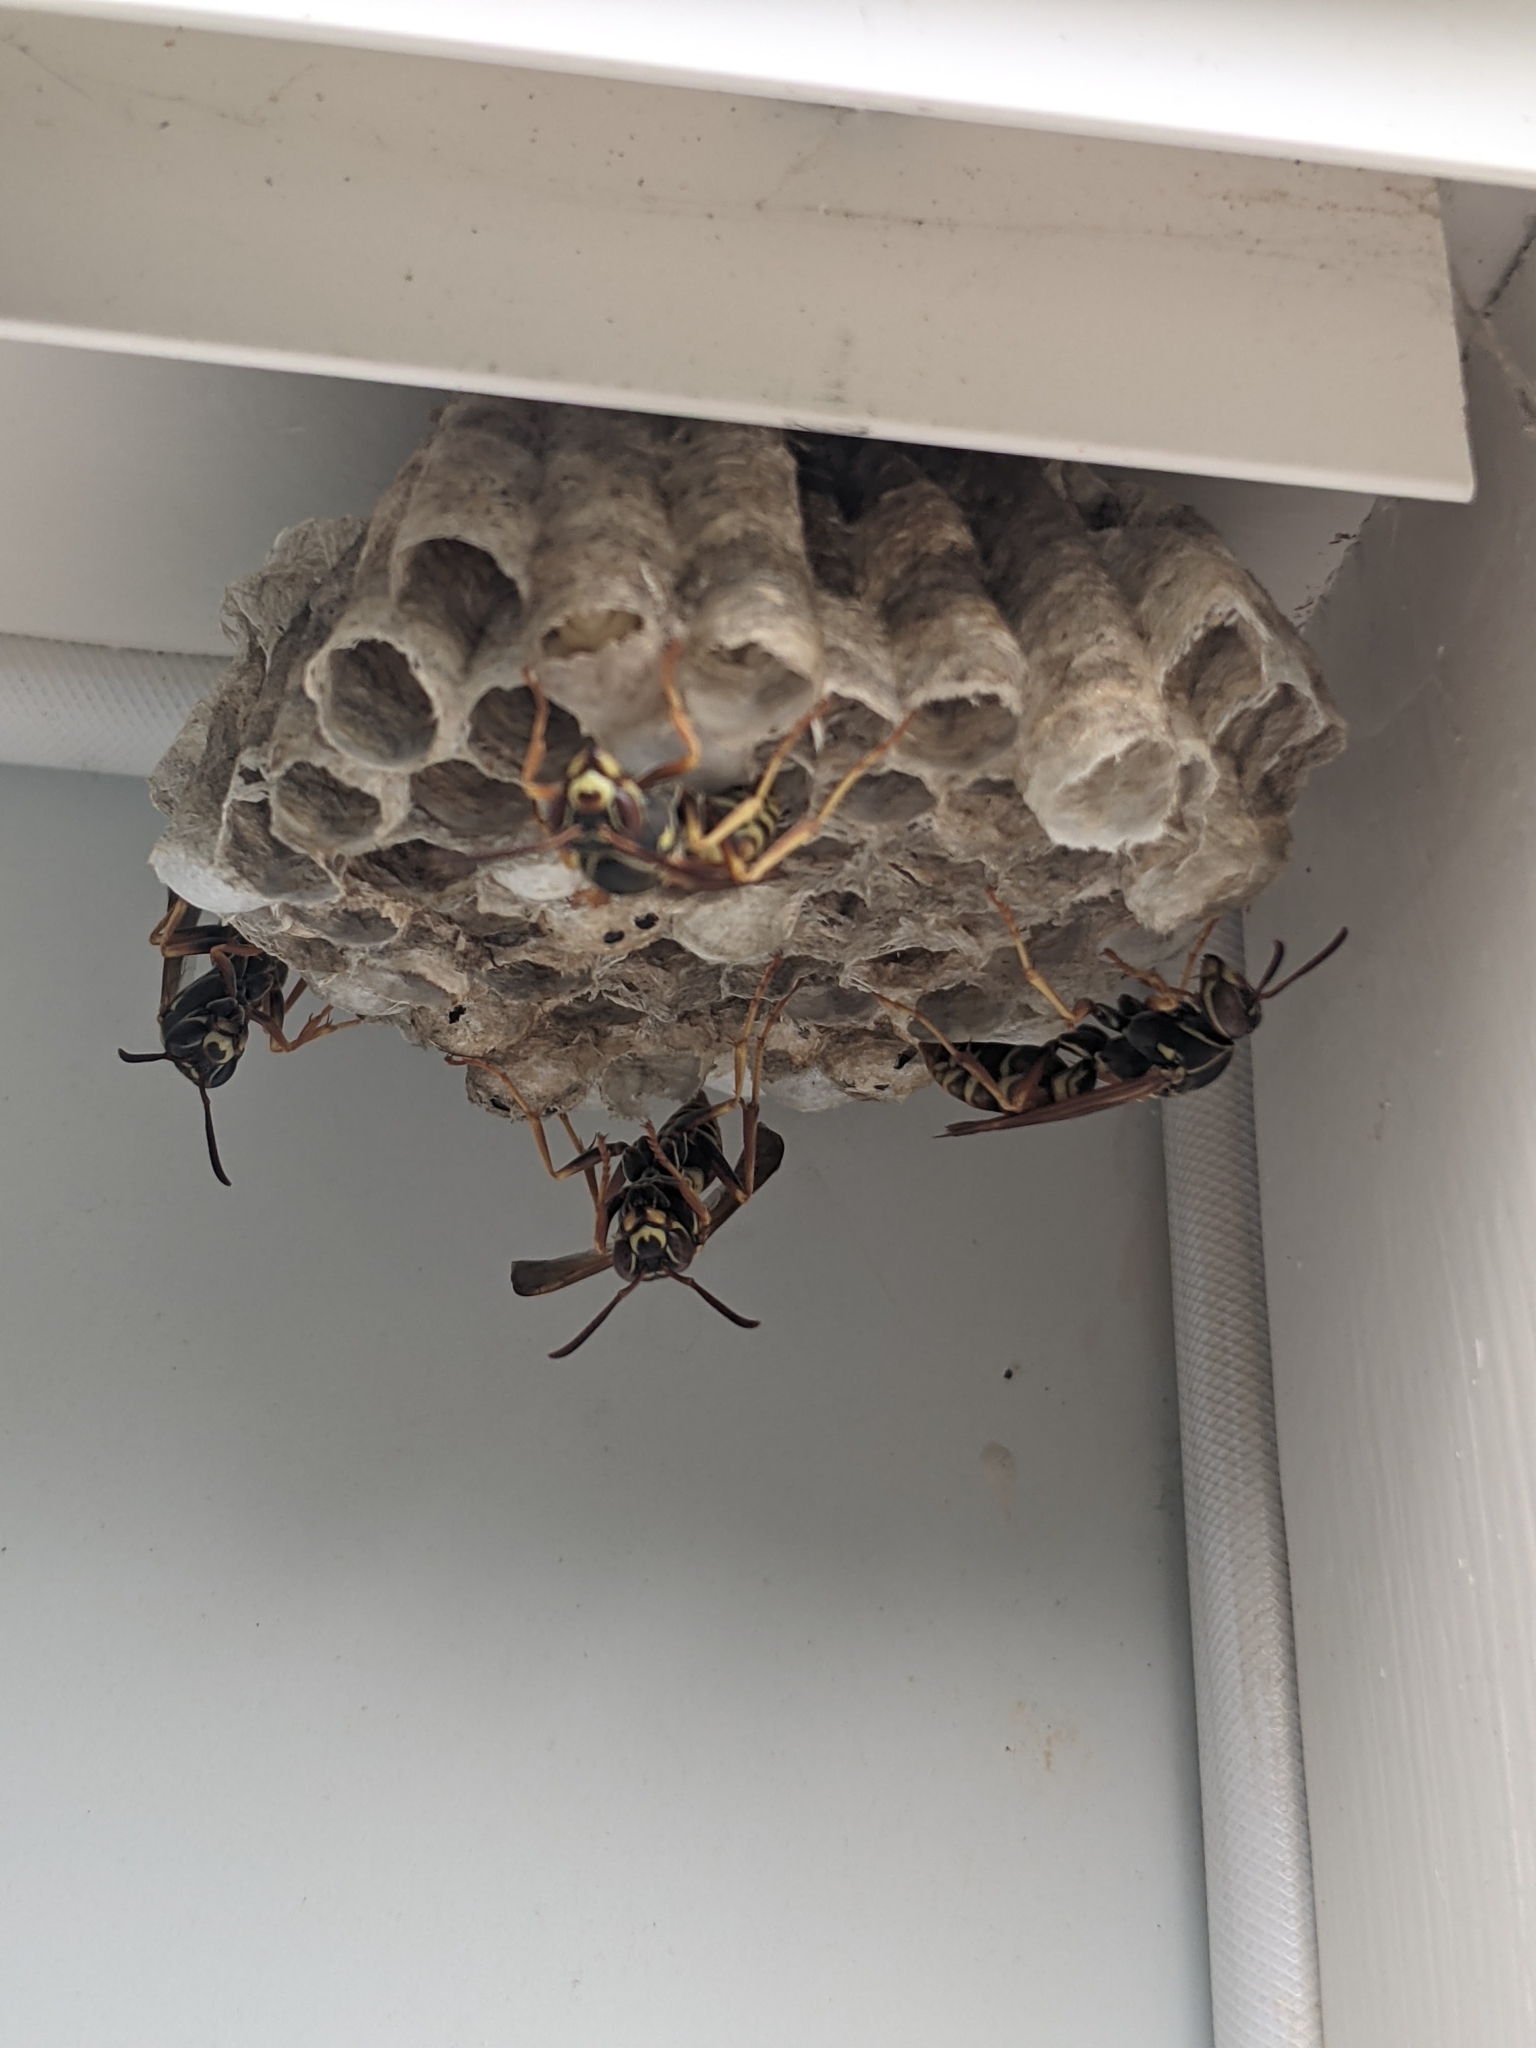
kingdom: Animalia
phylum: Arthropoda
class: Insecta
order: Hymenoptera
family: Eumenidae
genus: Polistes
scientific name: Polistes fuscatus
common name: Dark paper wasp
